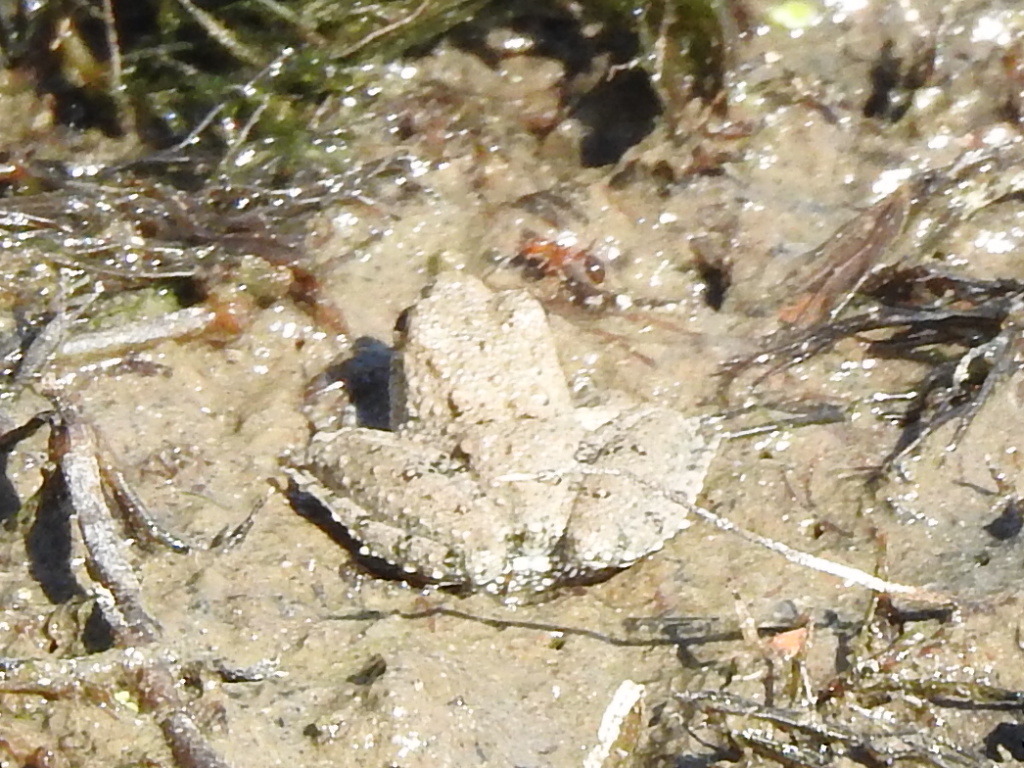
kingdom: Animalia
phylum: Chordata
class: Amphibia
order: Anura
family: Hylidae
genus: Acris
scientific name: Acris blanchardi
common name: Blanchard's cricket frog
